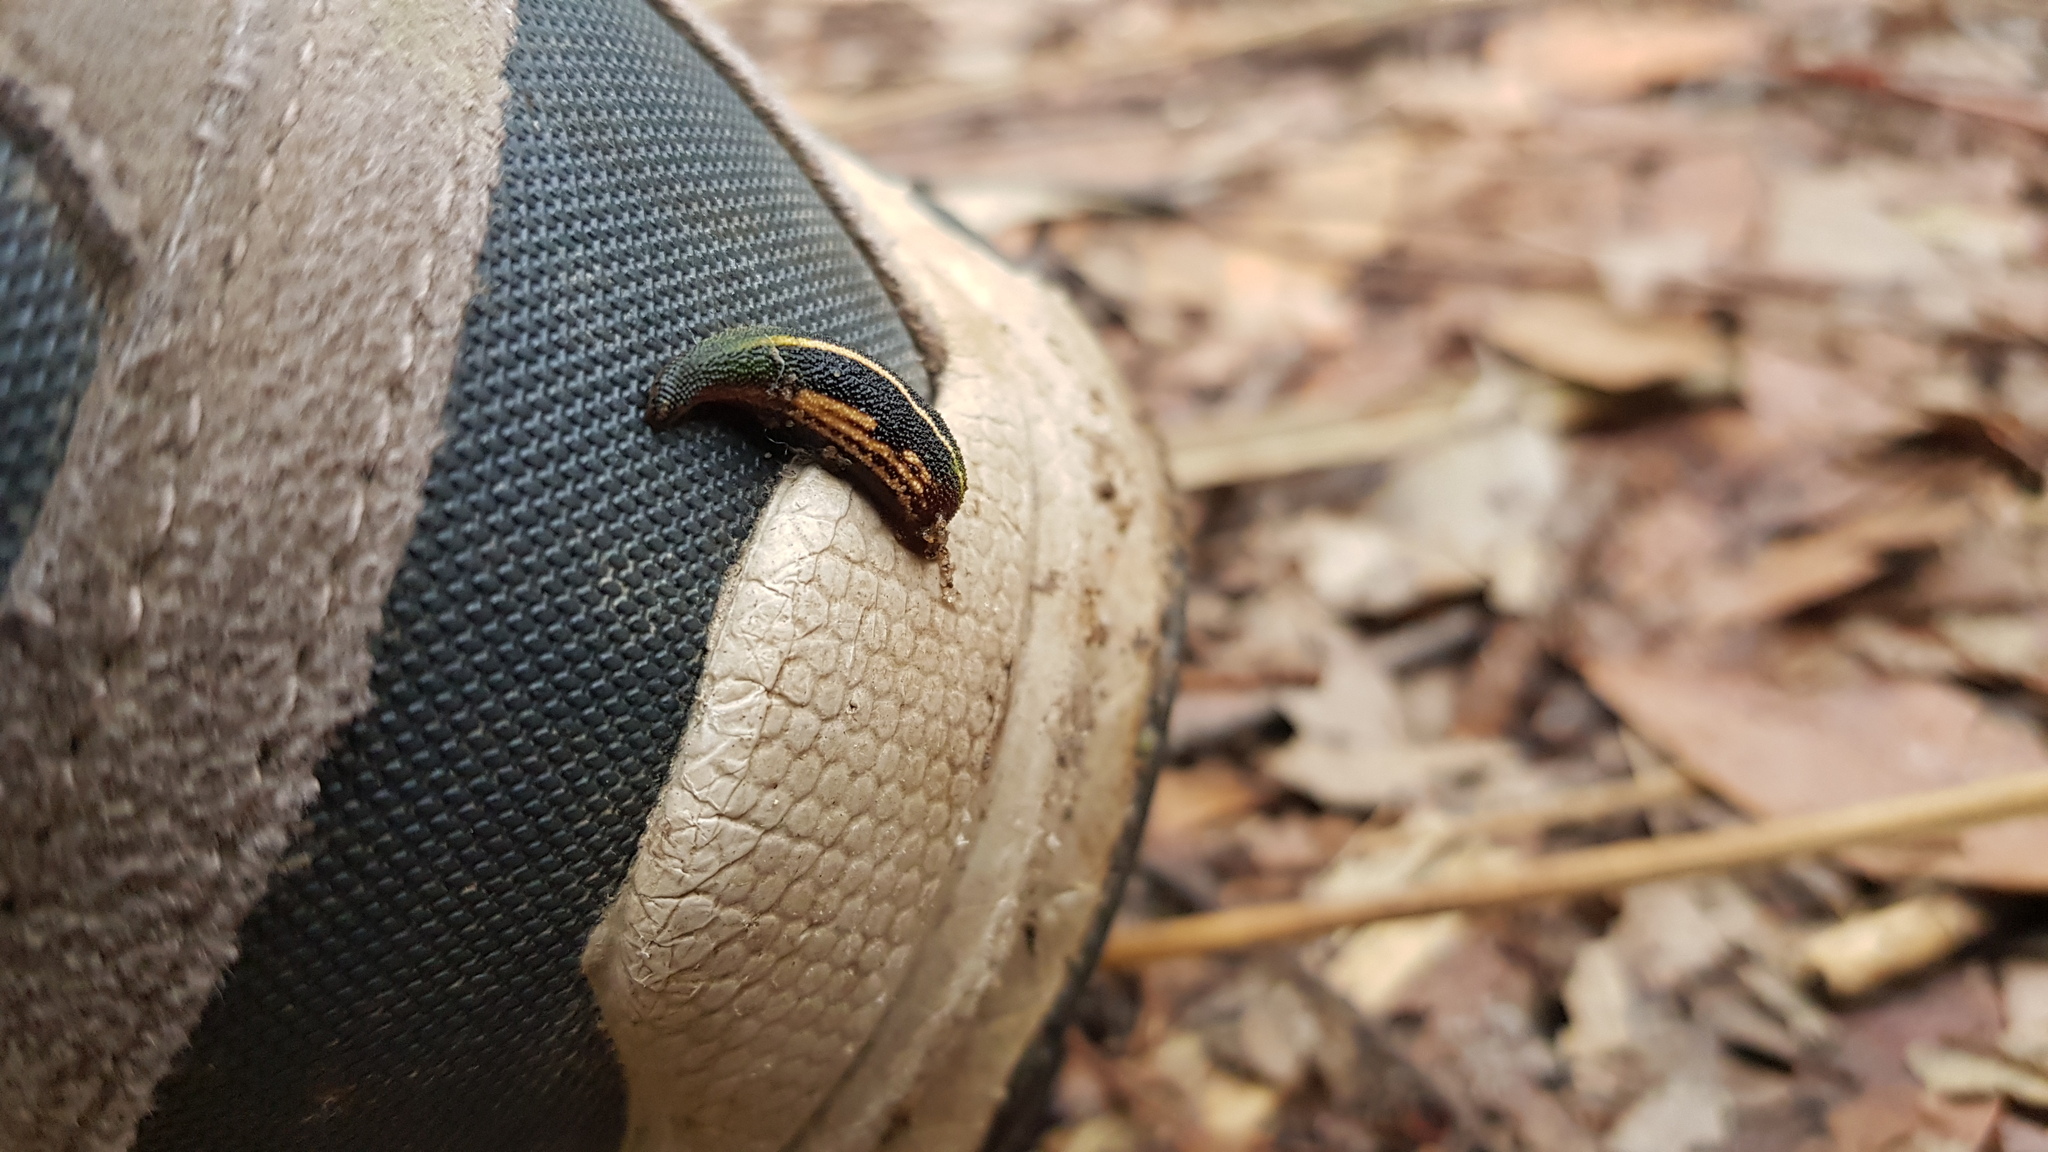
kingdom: Animalia
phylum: Annelida
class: Clitellata
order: Arhynchobdellida
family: Haemadipsidae
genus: Chtonobdella
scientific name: Chtonobdella limbata
